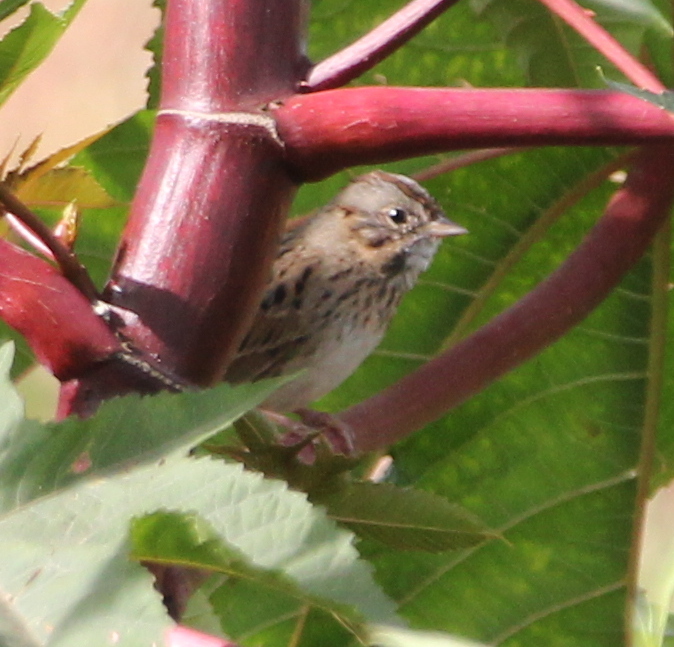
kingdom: Animalia
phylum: Chordata
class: Aves
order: Passeriformes
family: Passerellidae
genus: Melospiza
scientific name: Melospiza lincolnii
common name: Lincoln's sparrow
